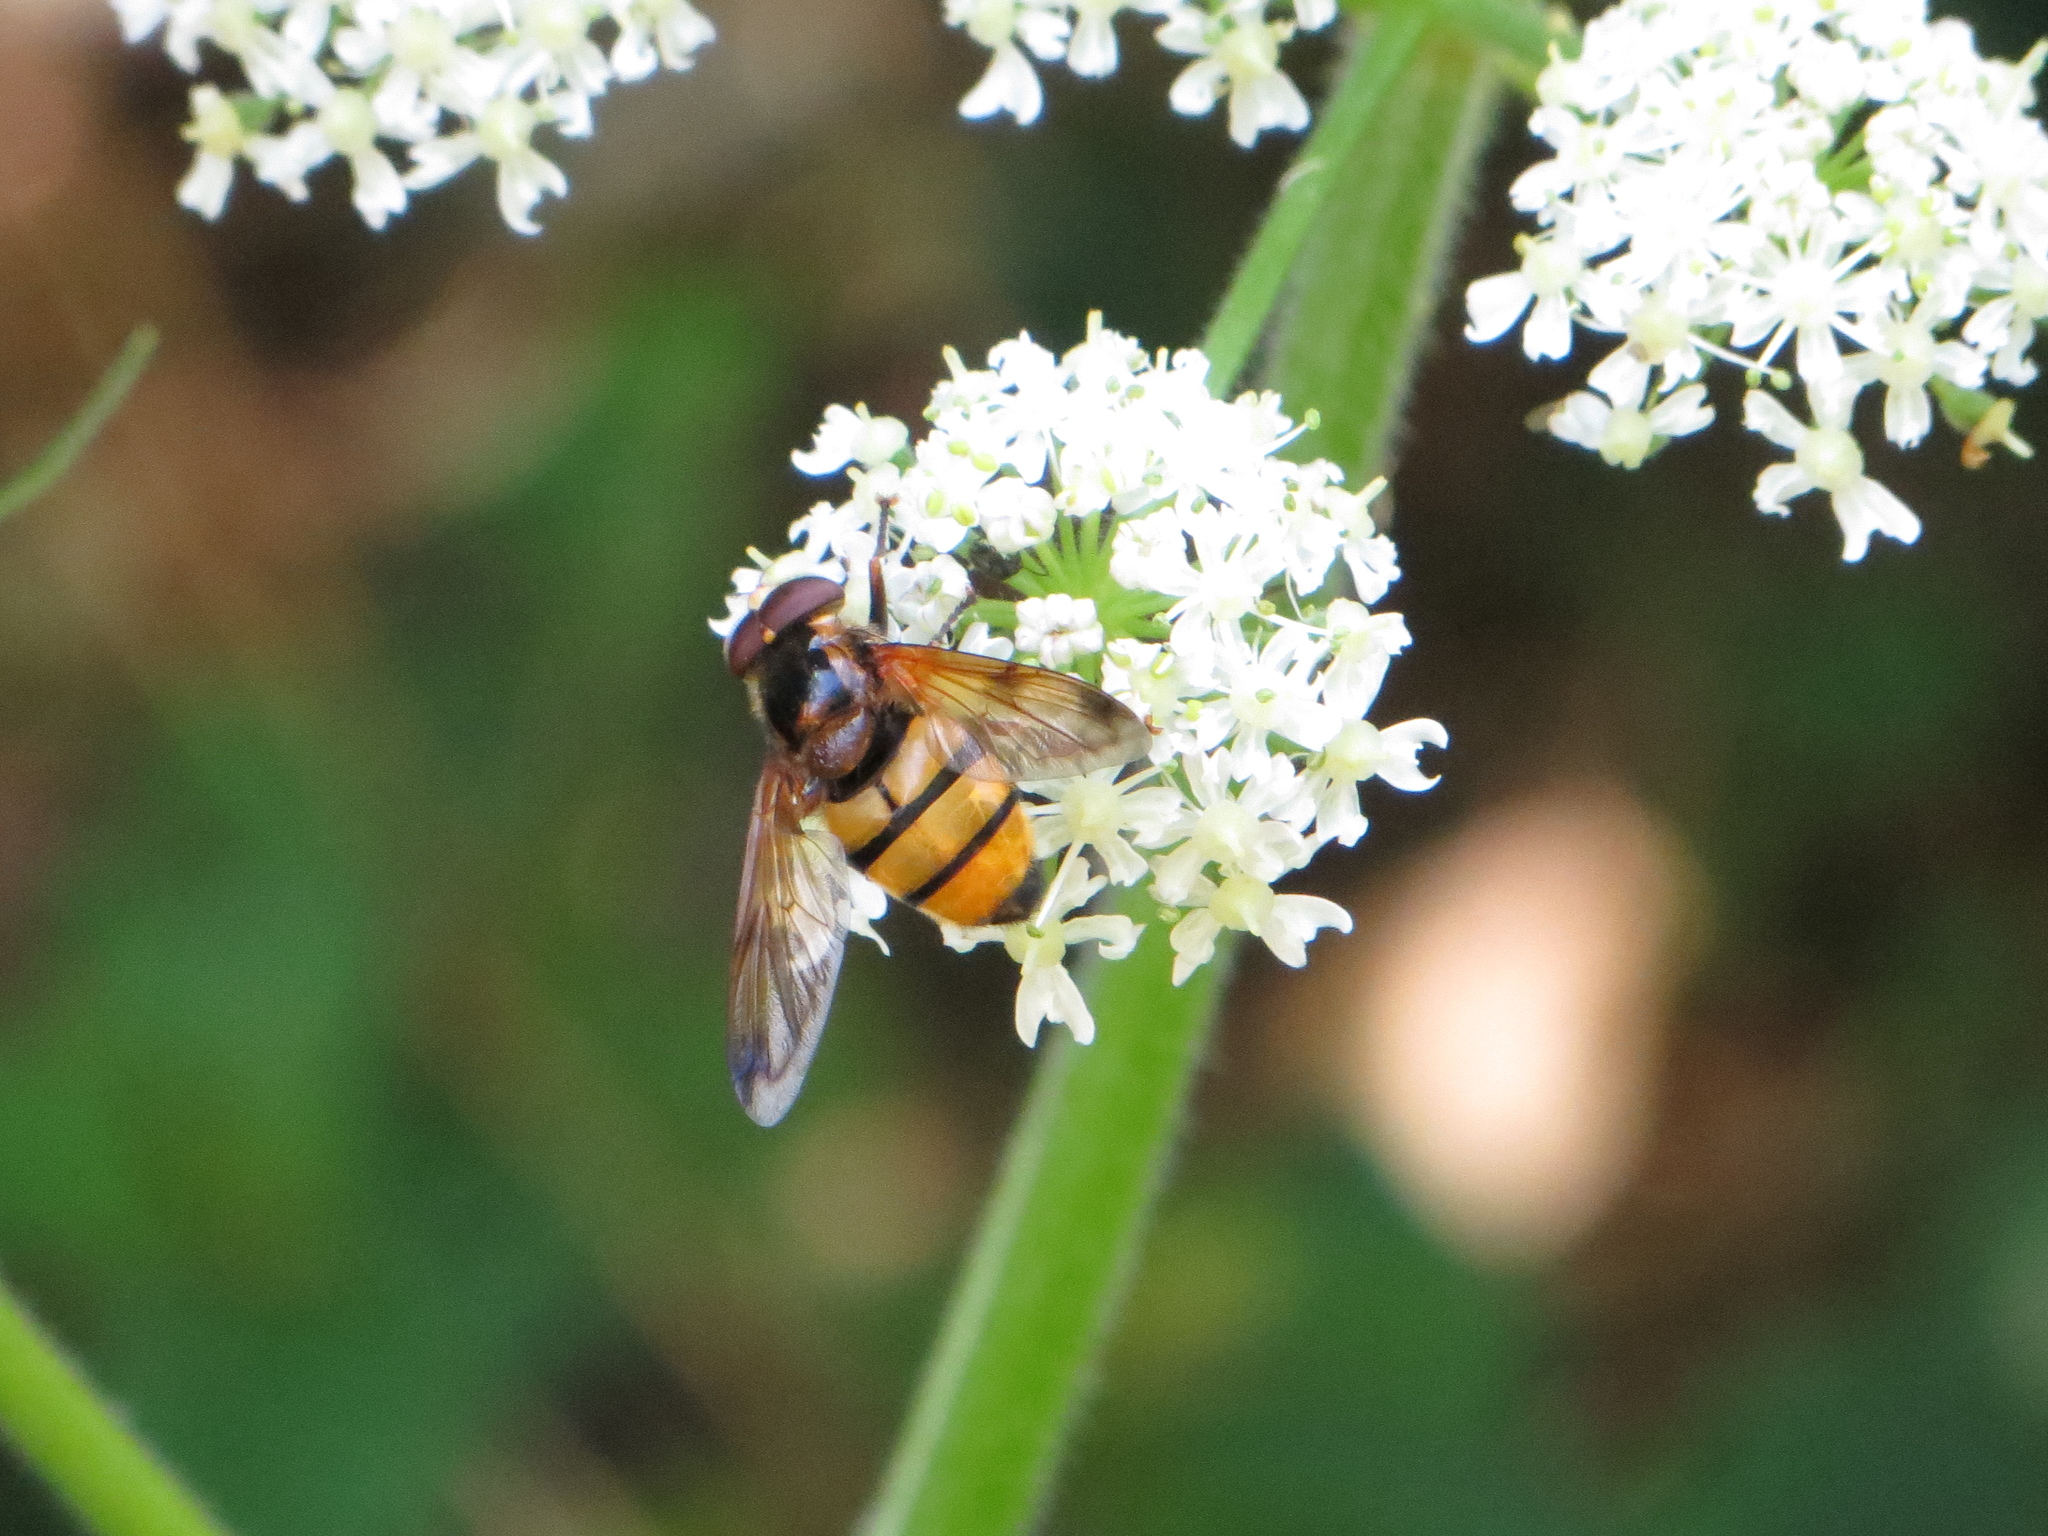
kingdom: Animalia
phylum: Arthropoda
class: Insecta
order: Diptera
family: Syrphidae
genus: Volucella
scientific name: Volucella inanis
